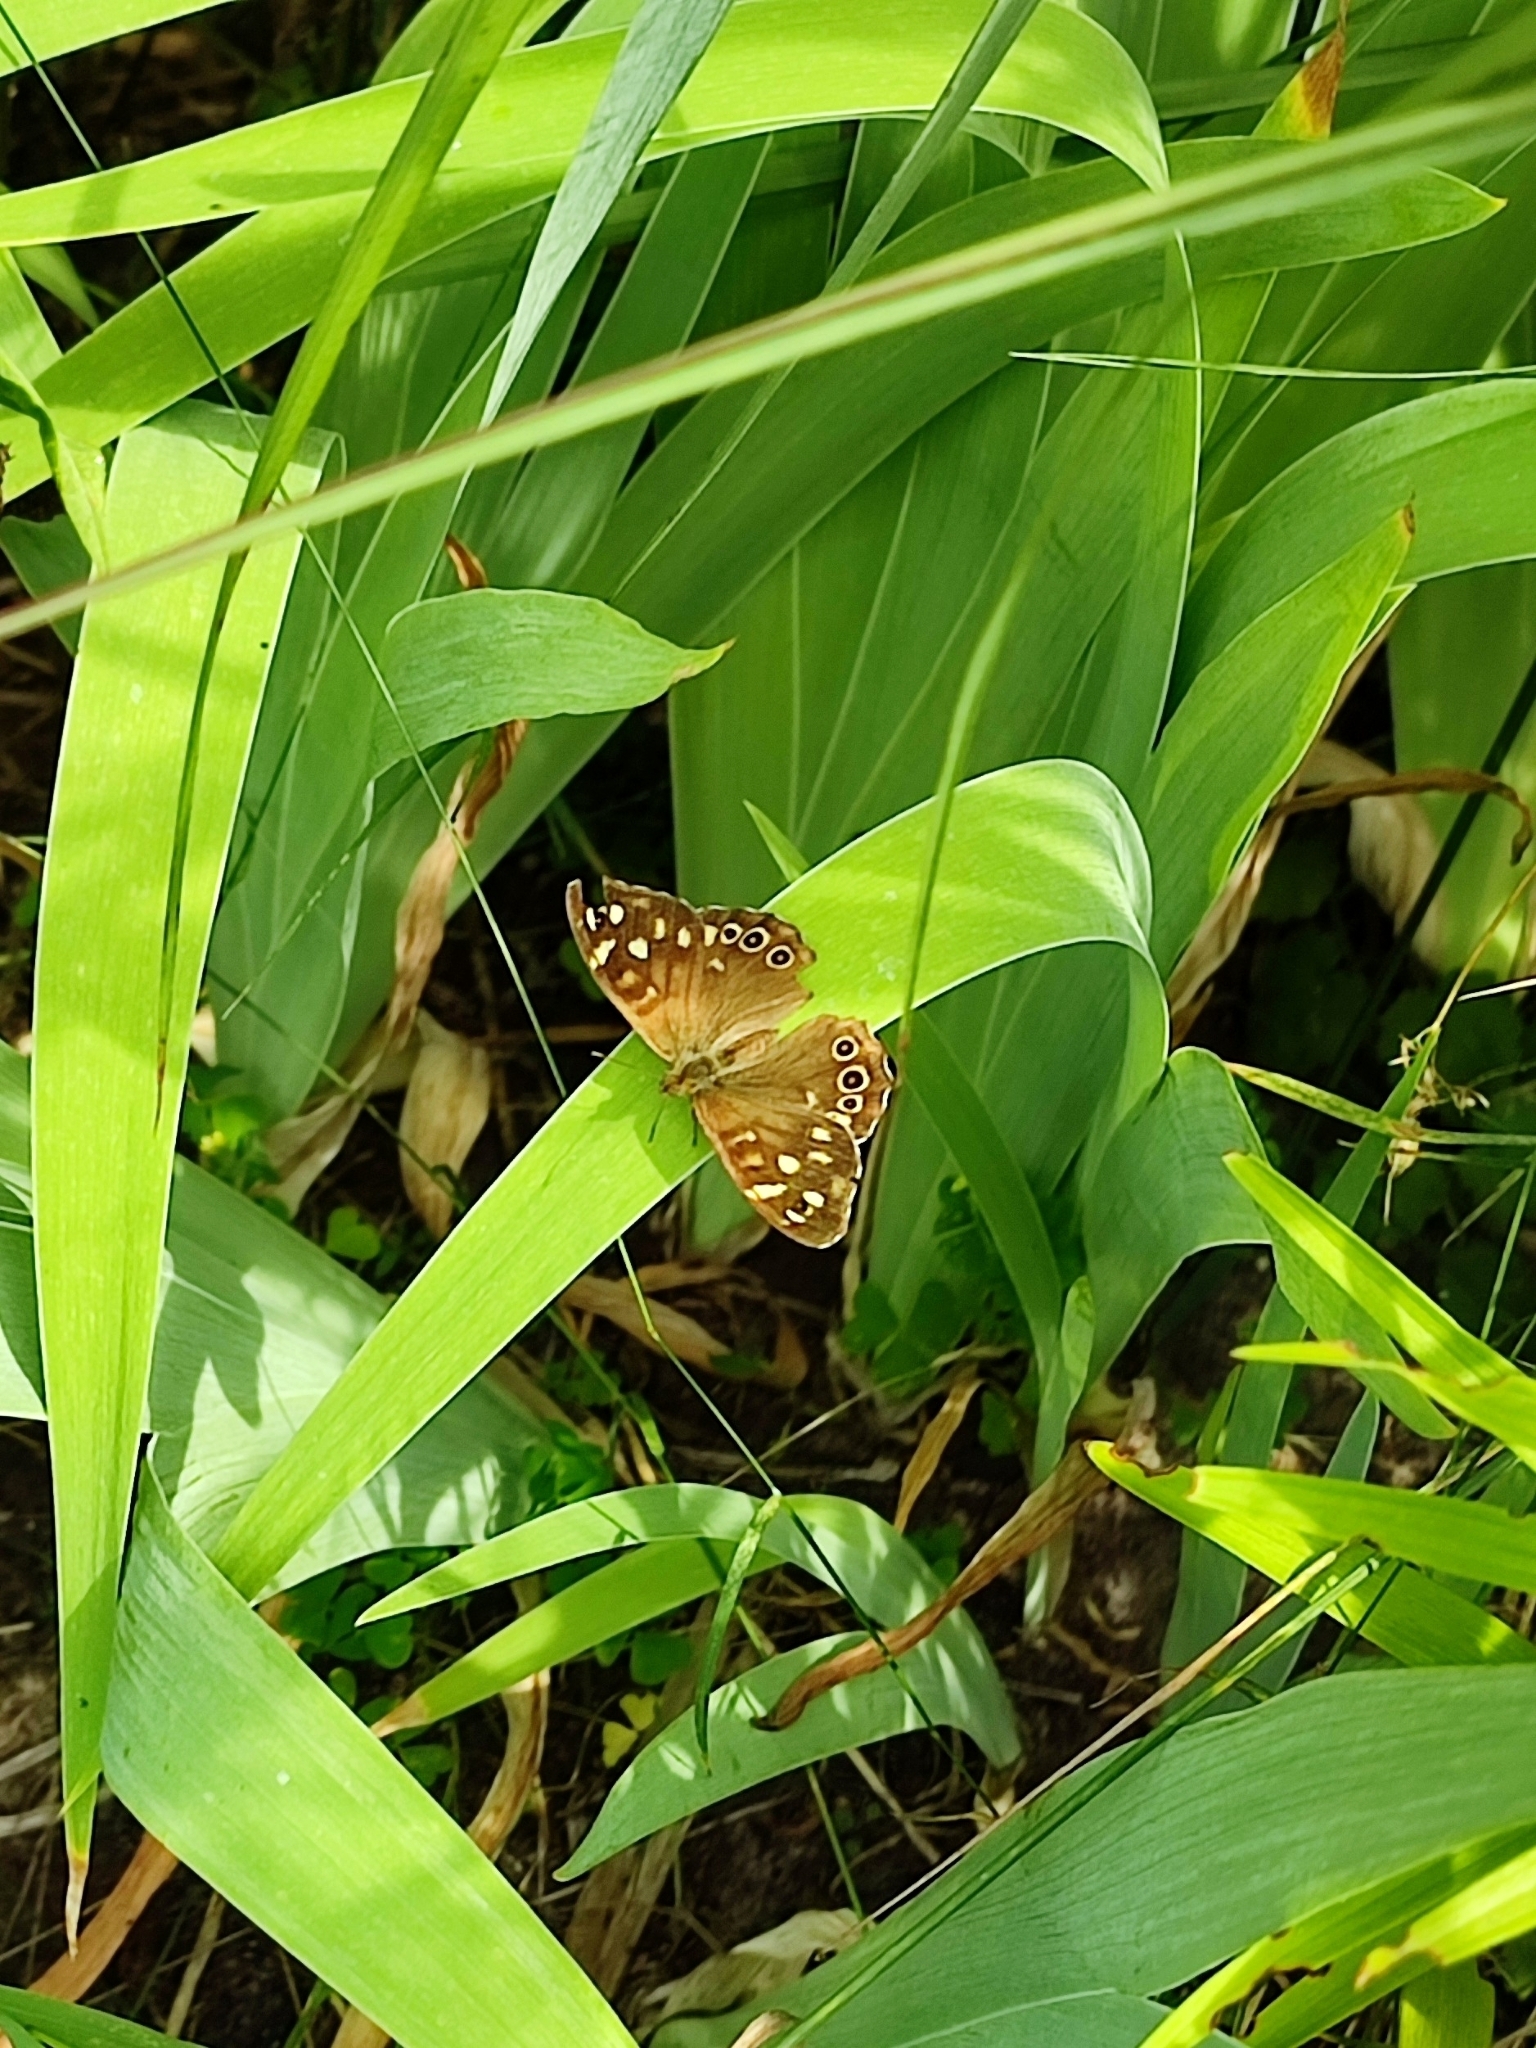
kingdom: Animalia
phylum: Arthropoda
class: Insecta
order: Lepidoptera
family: Nymphalidae
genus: Pararge
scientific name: Pararge aegeria
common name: Speckled wood
